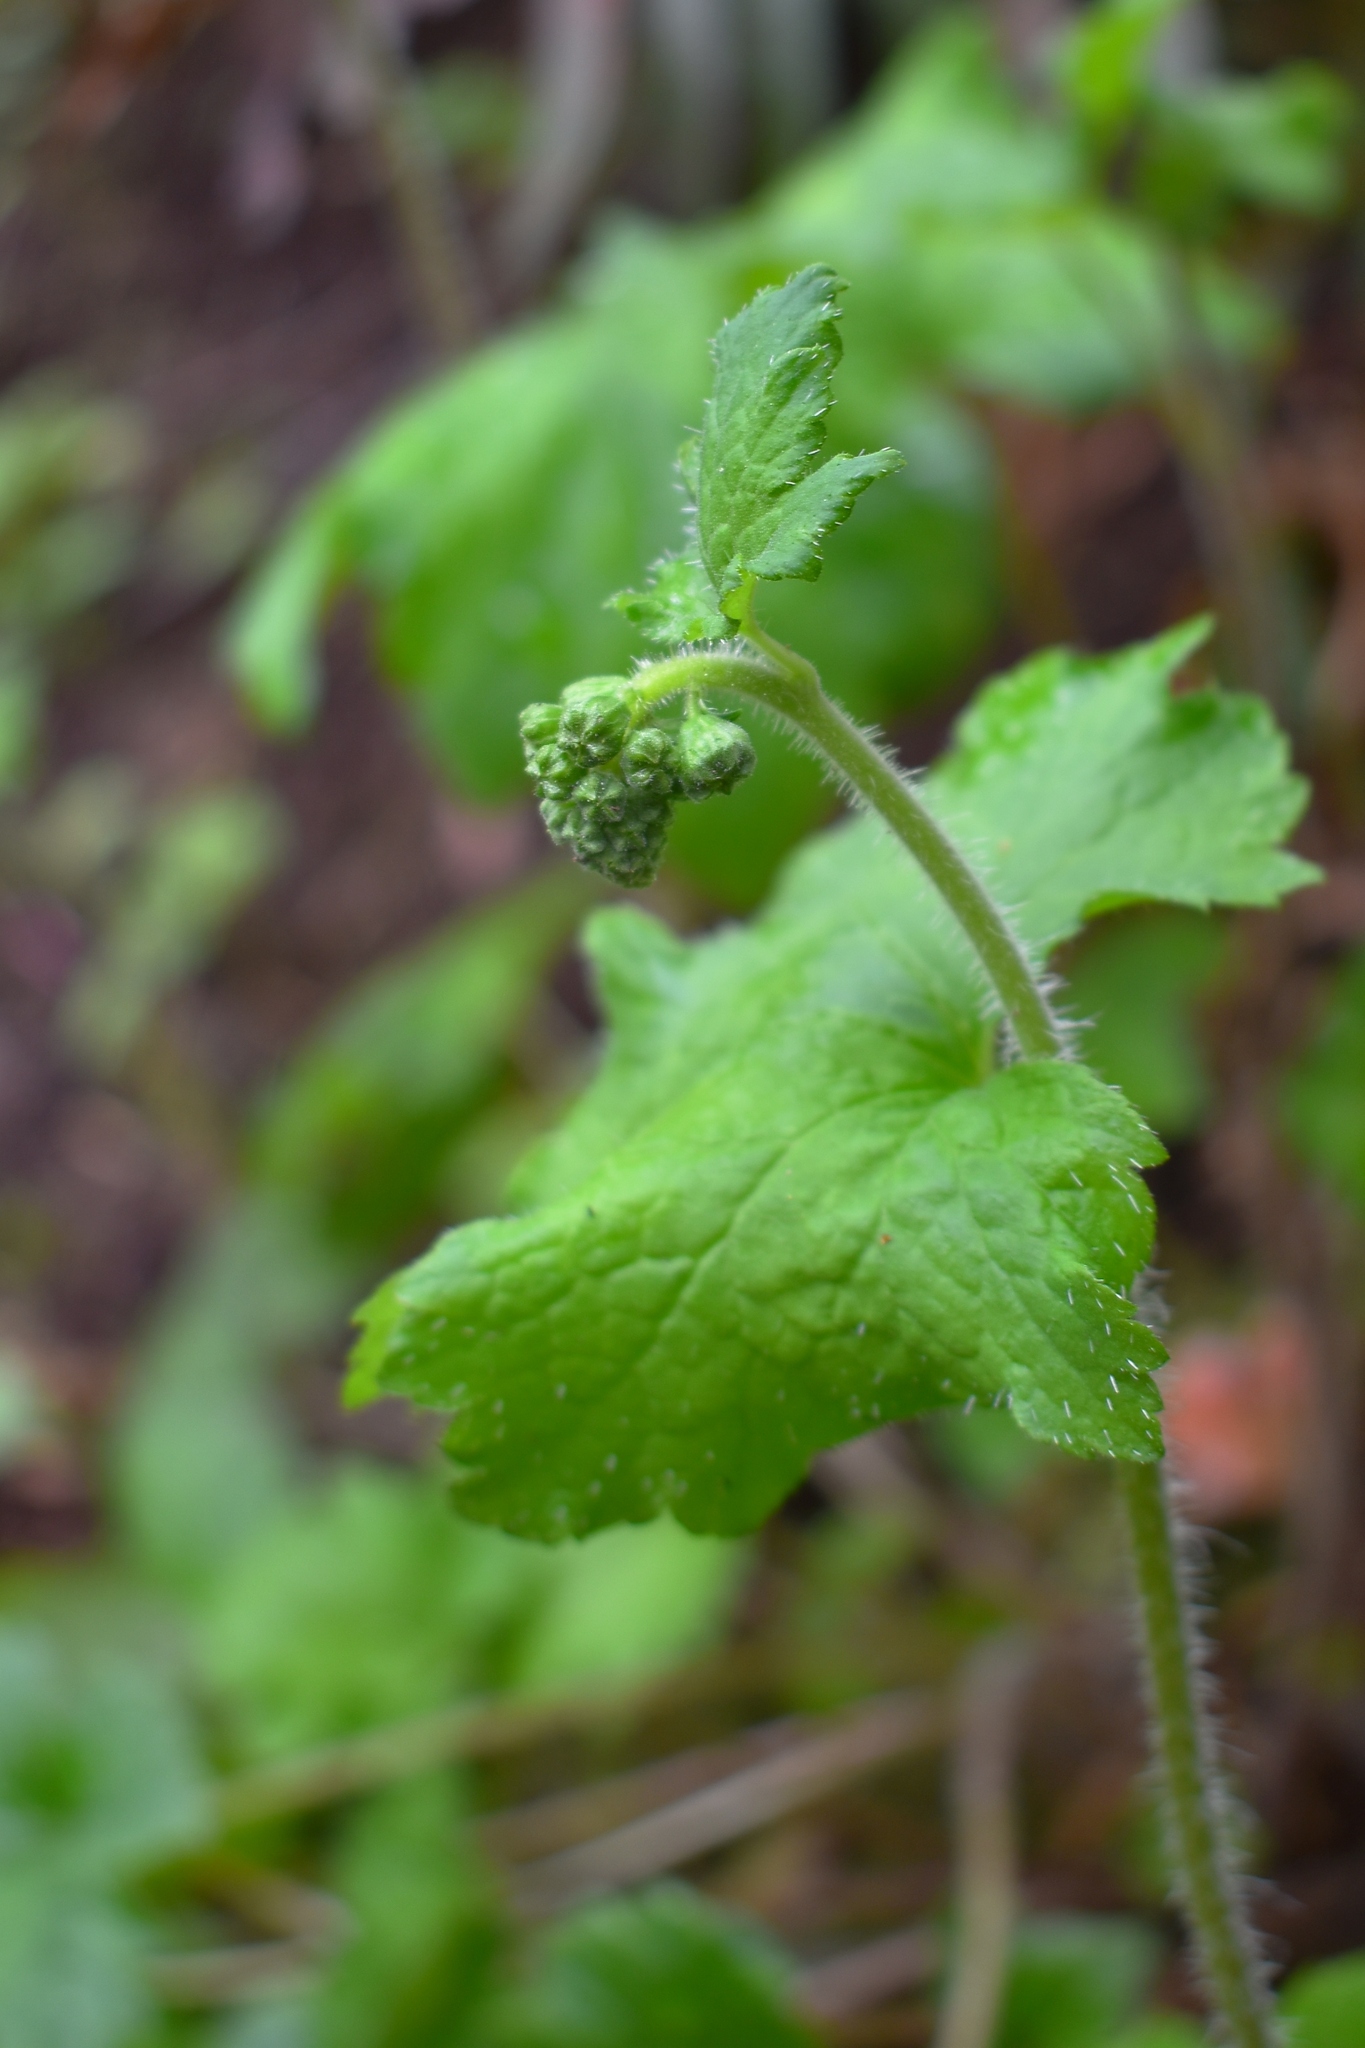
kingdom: Plantae
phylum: Tracheophyta
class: Magnoliopsida
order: Saxifragales
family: Saxifragaceae
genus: Tellima
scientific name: Tellima grandiflora
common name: Fringecups
